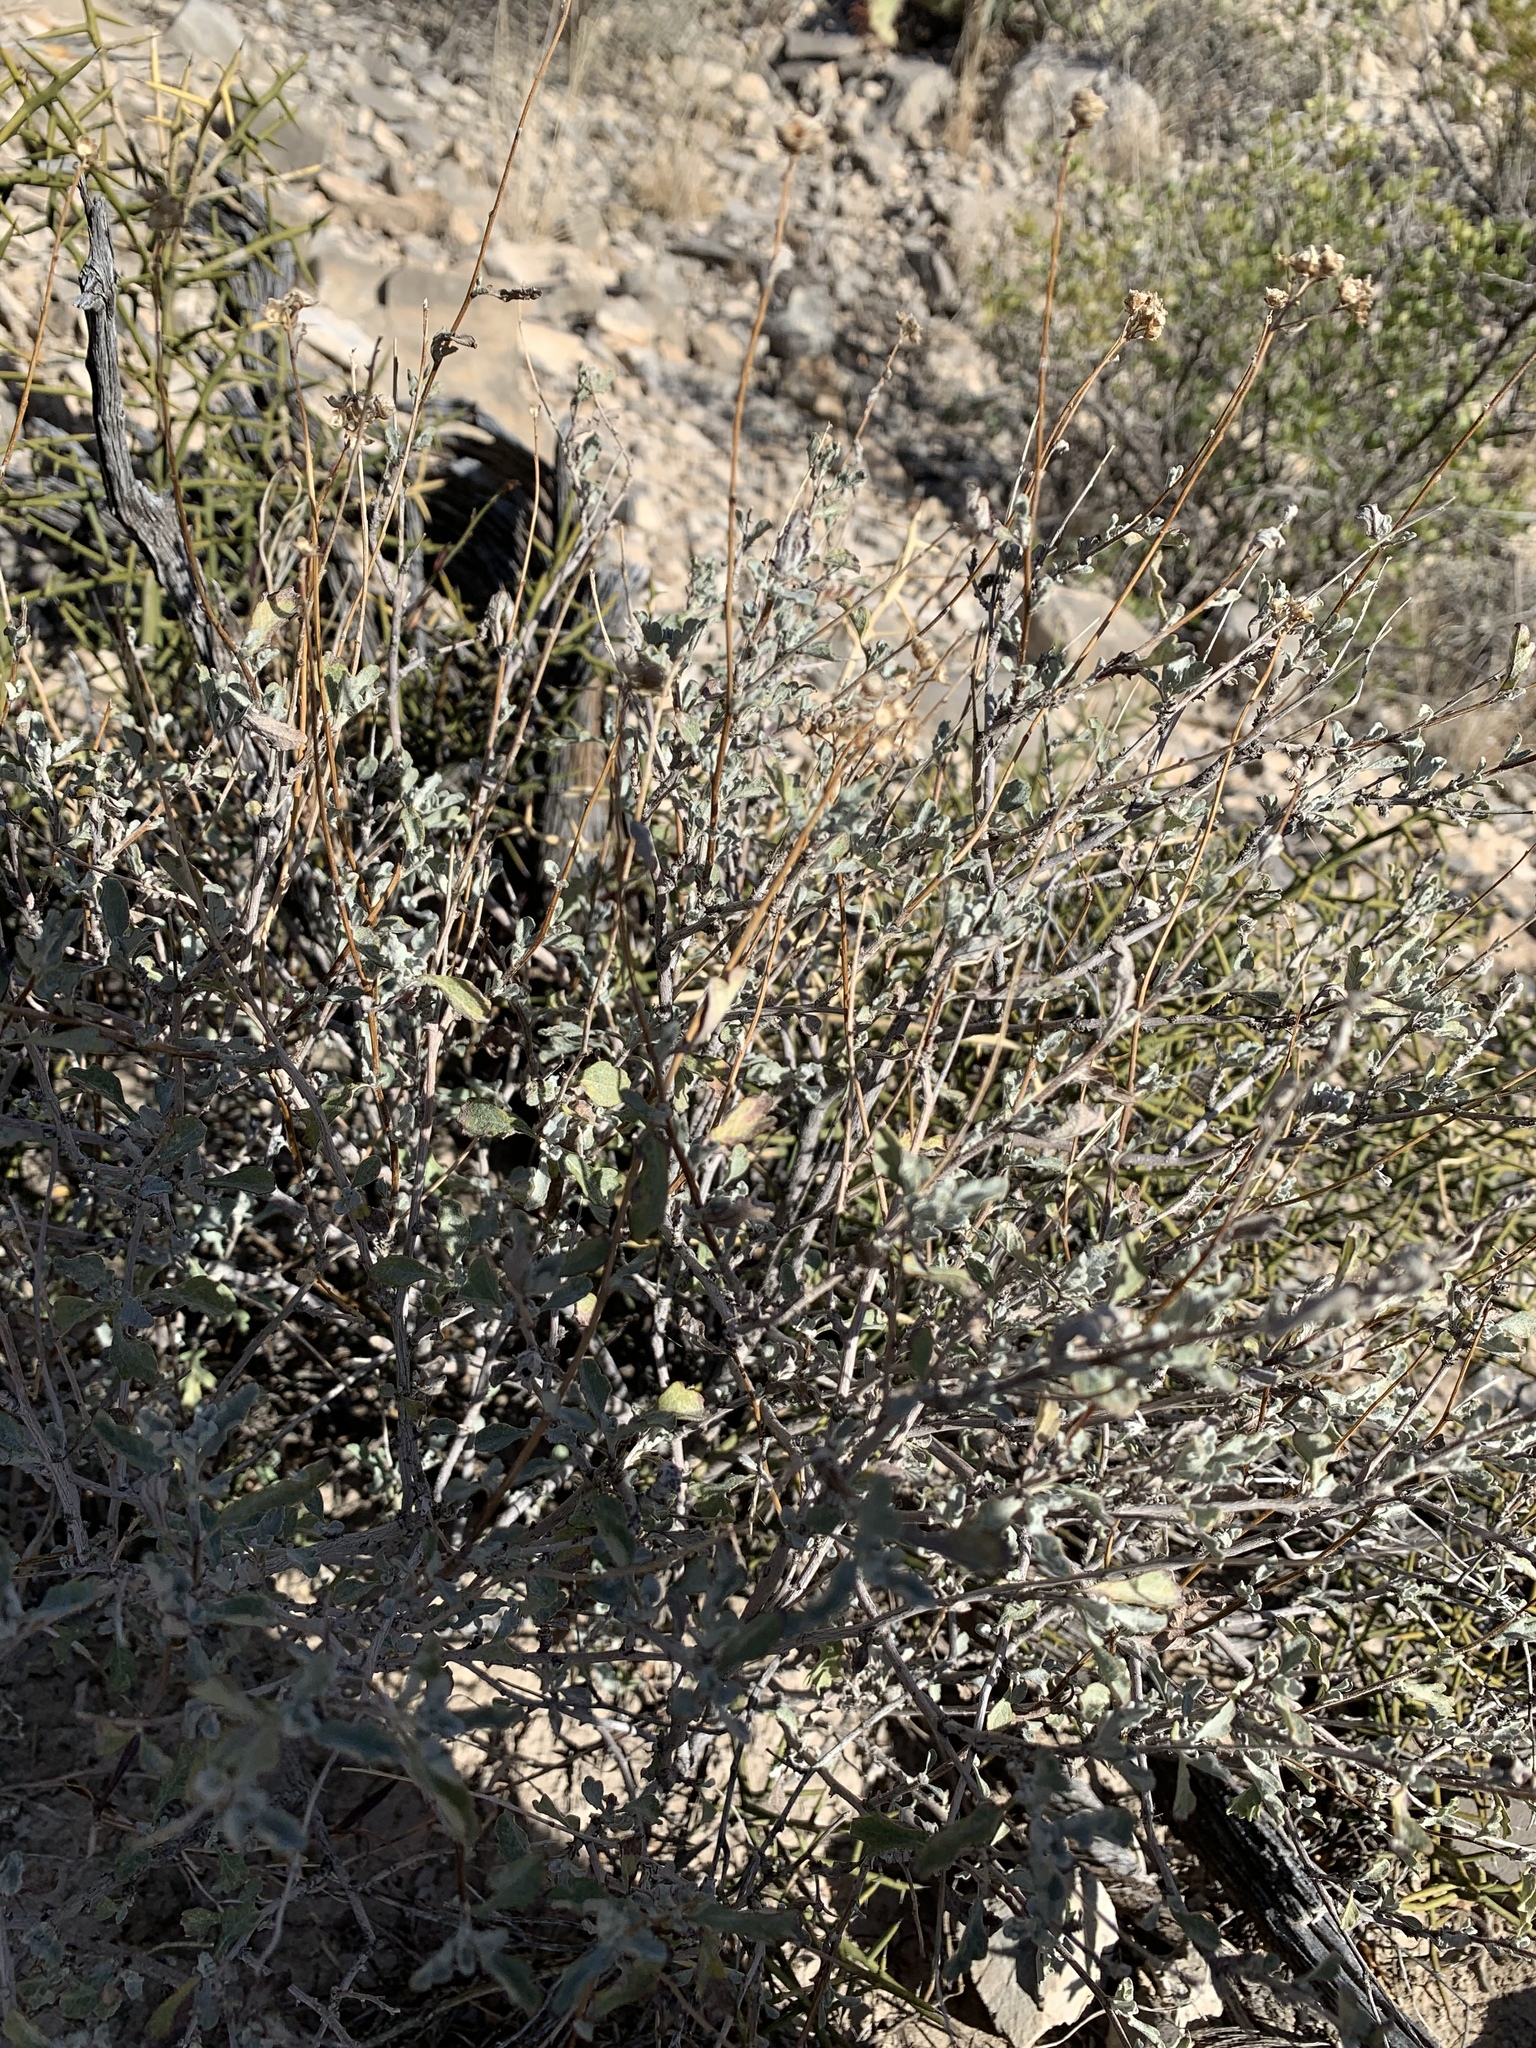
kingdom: Plantae
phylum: Tracheophyta
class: Magnoliopsida
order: Asterales
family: Asteraceae
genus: Parthenium
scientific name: Parthenium incanum
